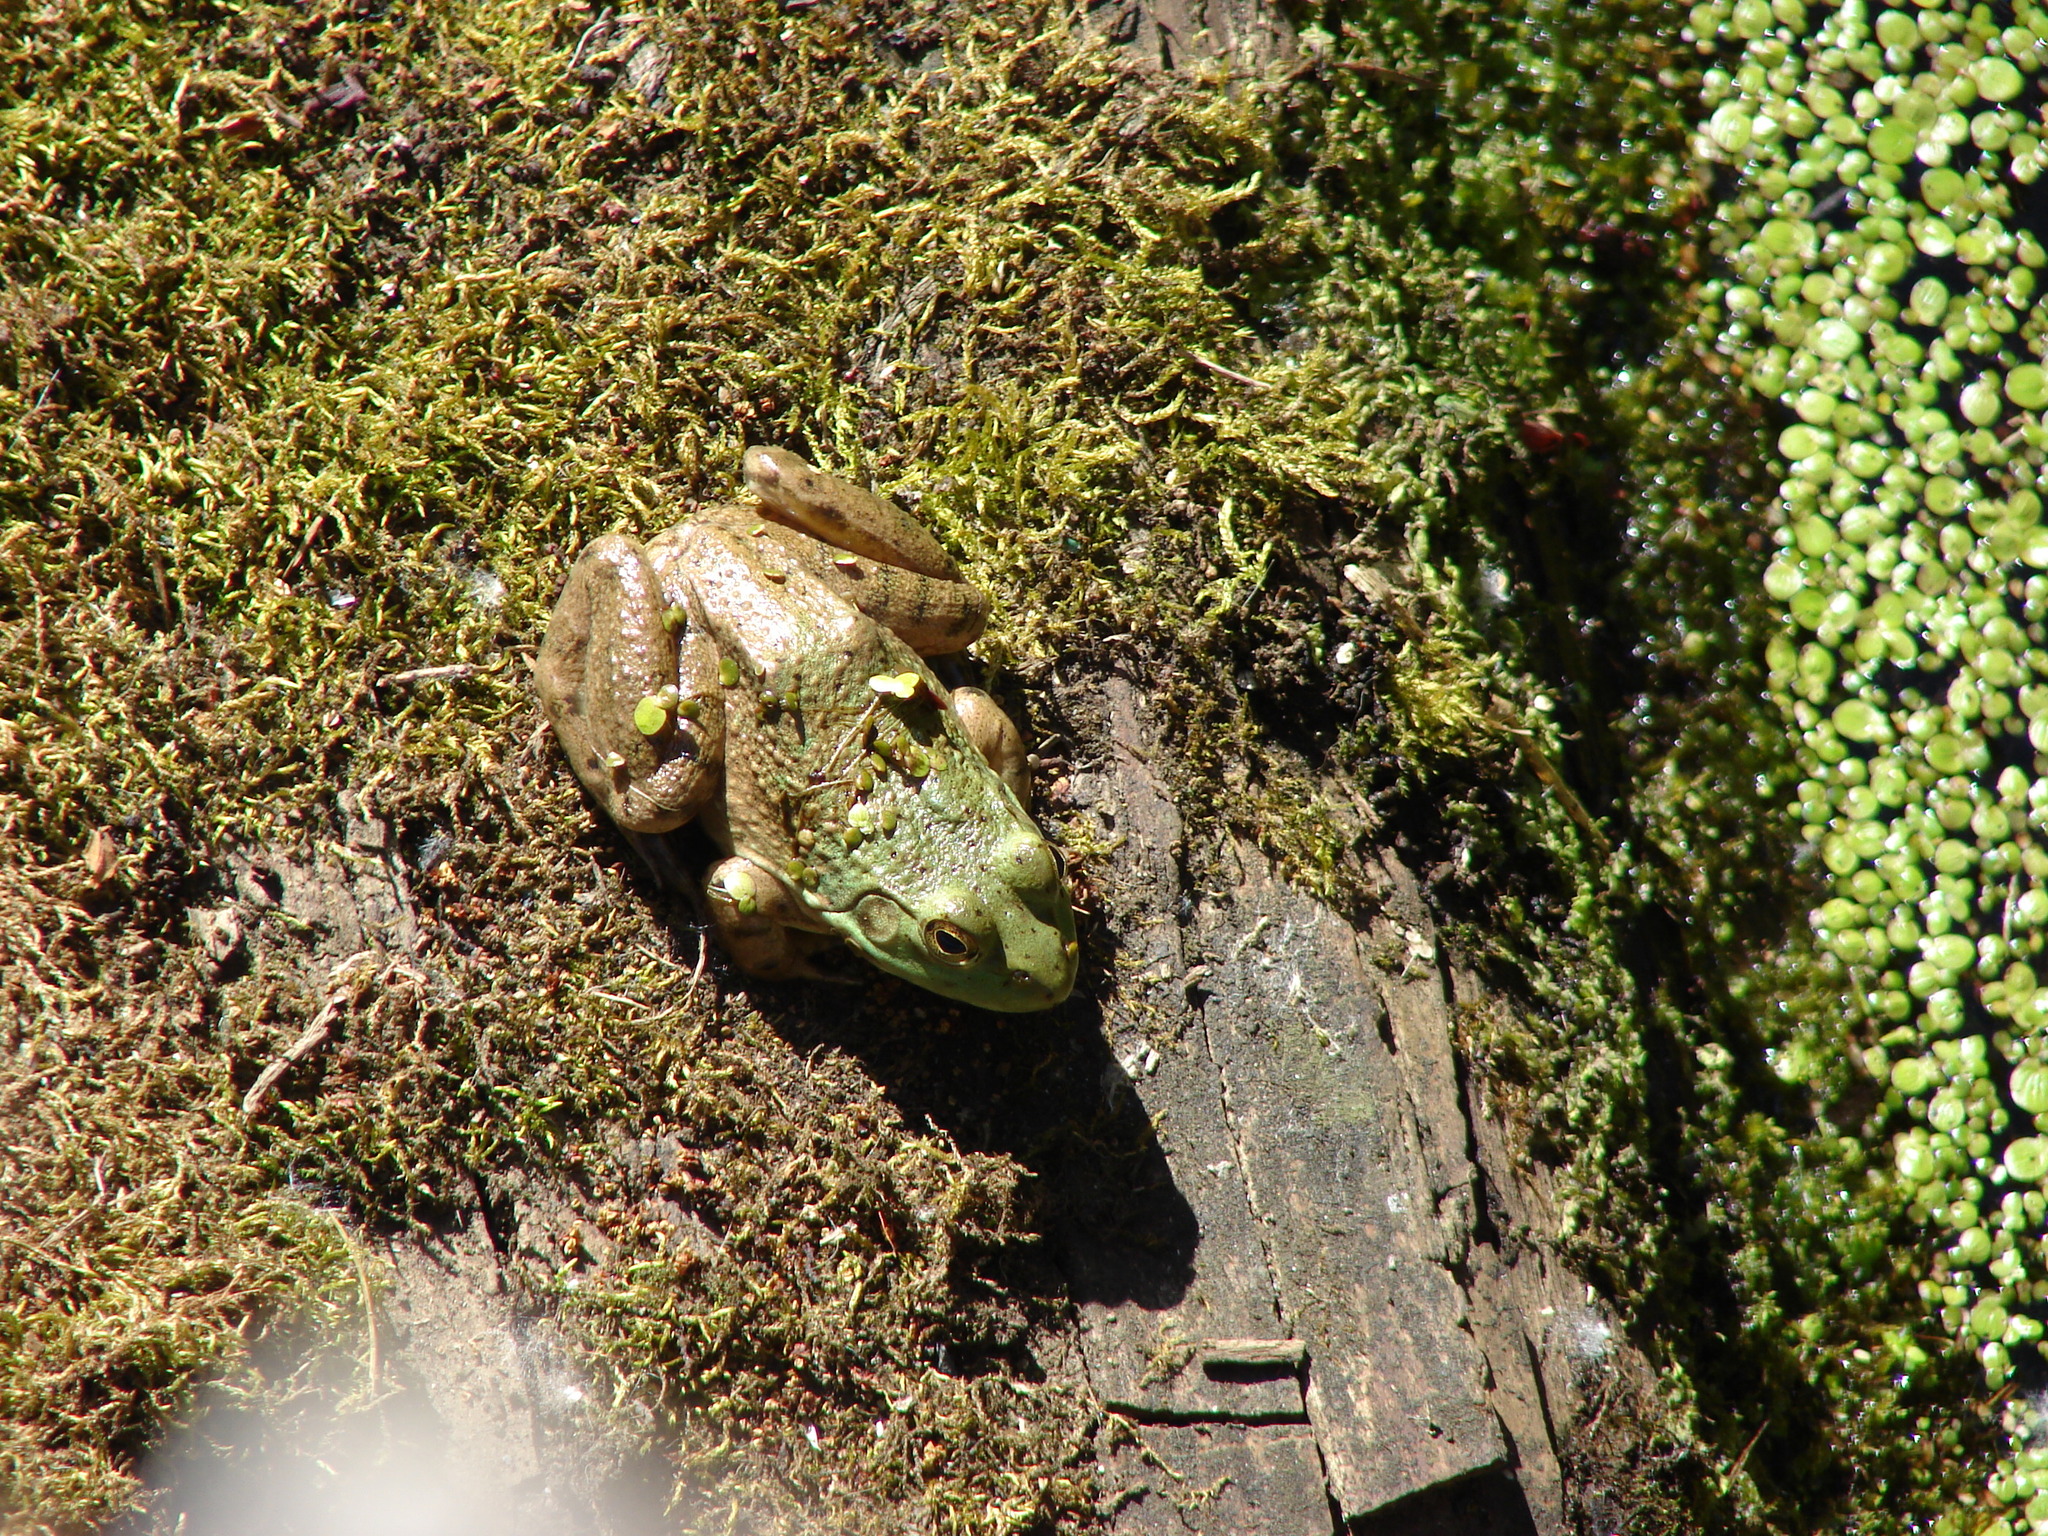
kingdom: Animalia
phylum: Chordata
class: Amphibia
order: Anura
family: Ranidae
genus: Lithobates
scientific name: Lithobates catesbeianus
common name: American bullfrog
